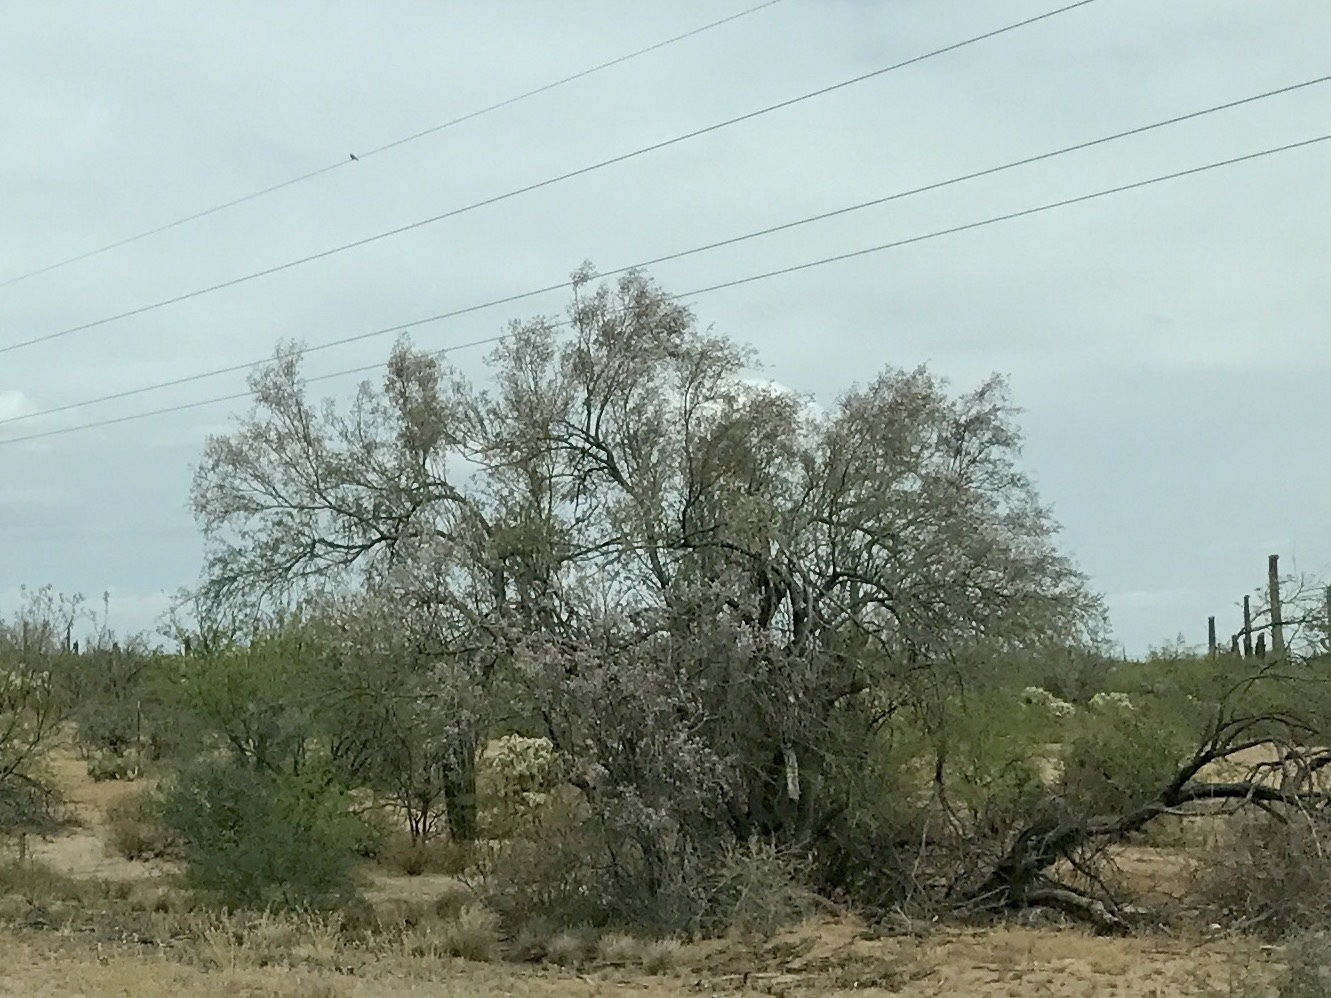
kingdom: Plantae
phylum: Tracheophyta
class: Magnoliopsida
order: Fabales
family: Fabaceae
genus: Olneya
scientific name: Olneya tesota
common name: Desert ironwood
